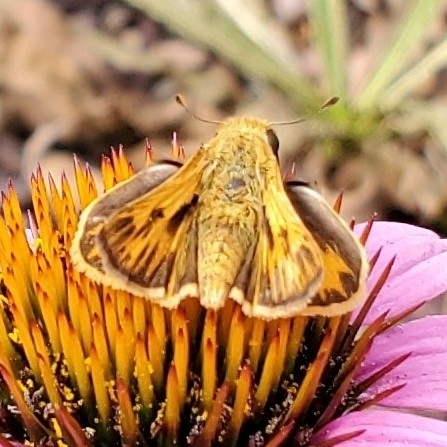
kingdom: Animalia
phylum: Arthropoda
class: Insecta
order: Lepidoptera
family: Hesperiidae
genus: Hylephila
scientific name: Hylephila phyleus
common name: Fiery skipper
